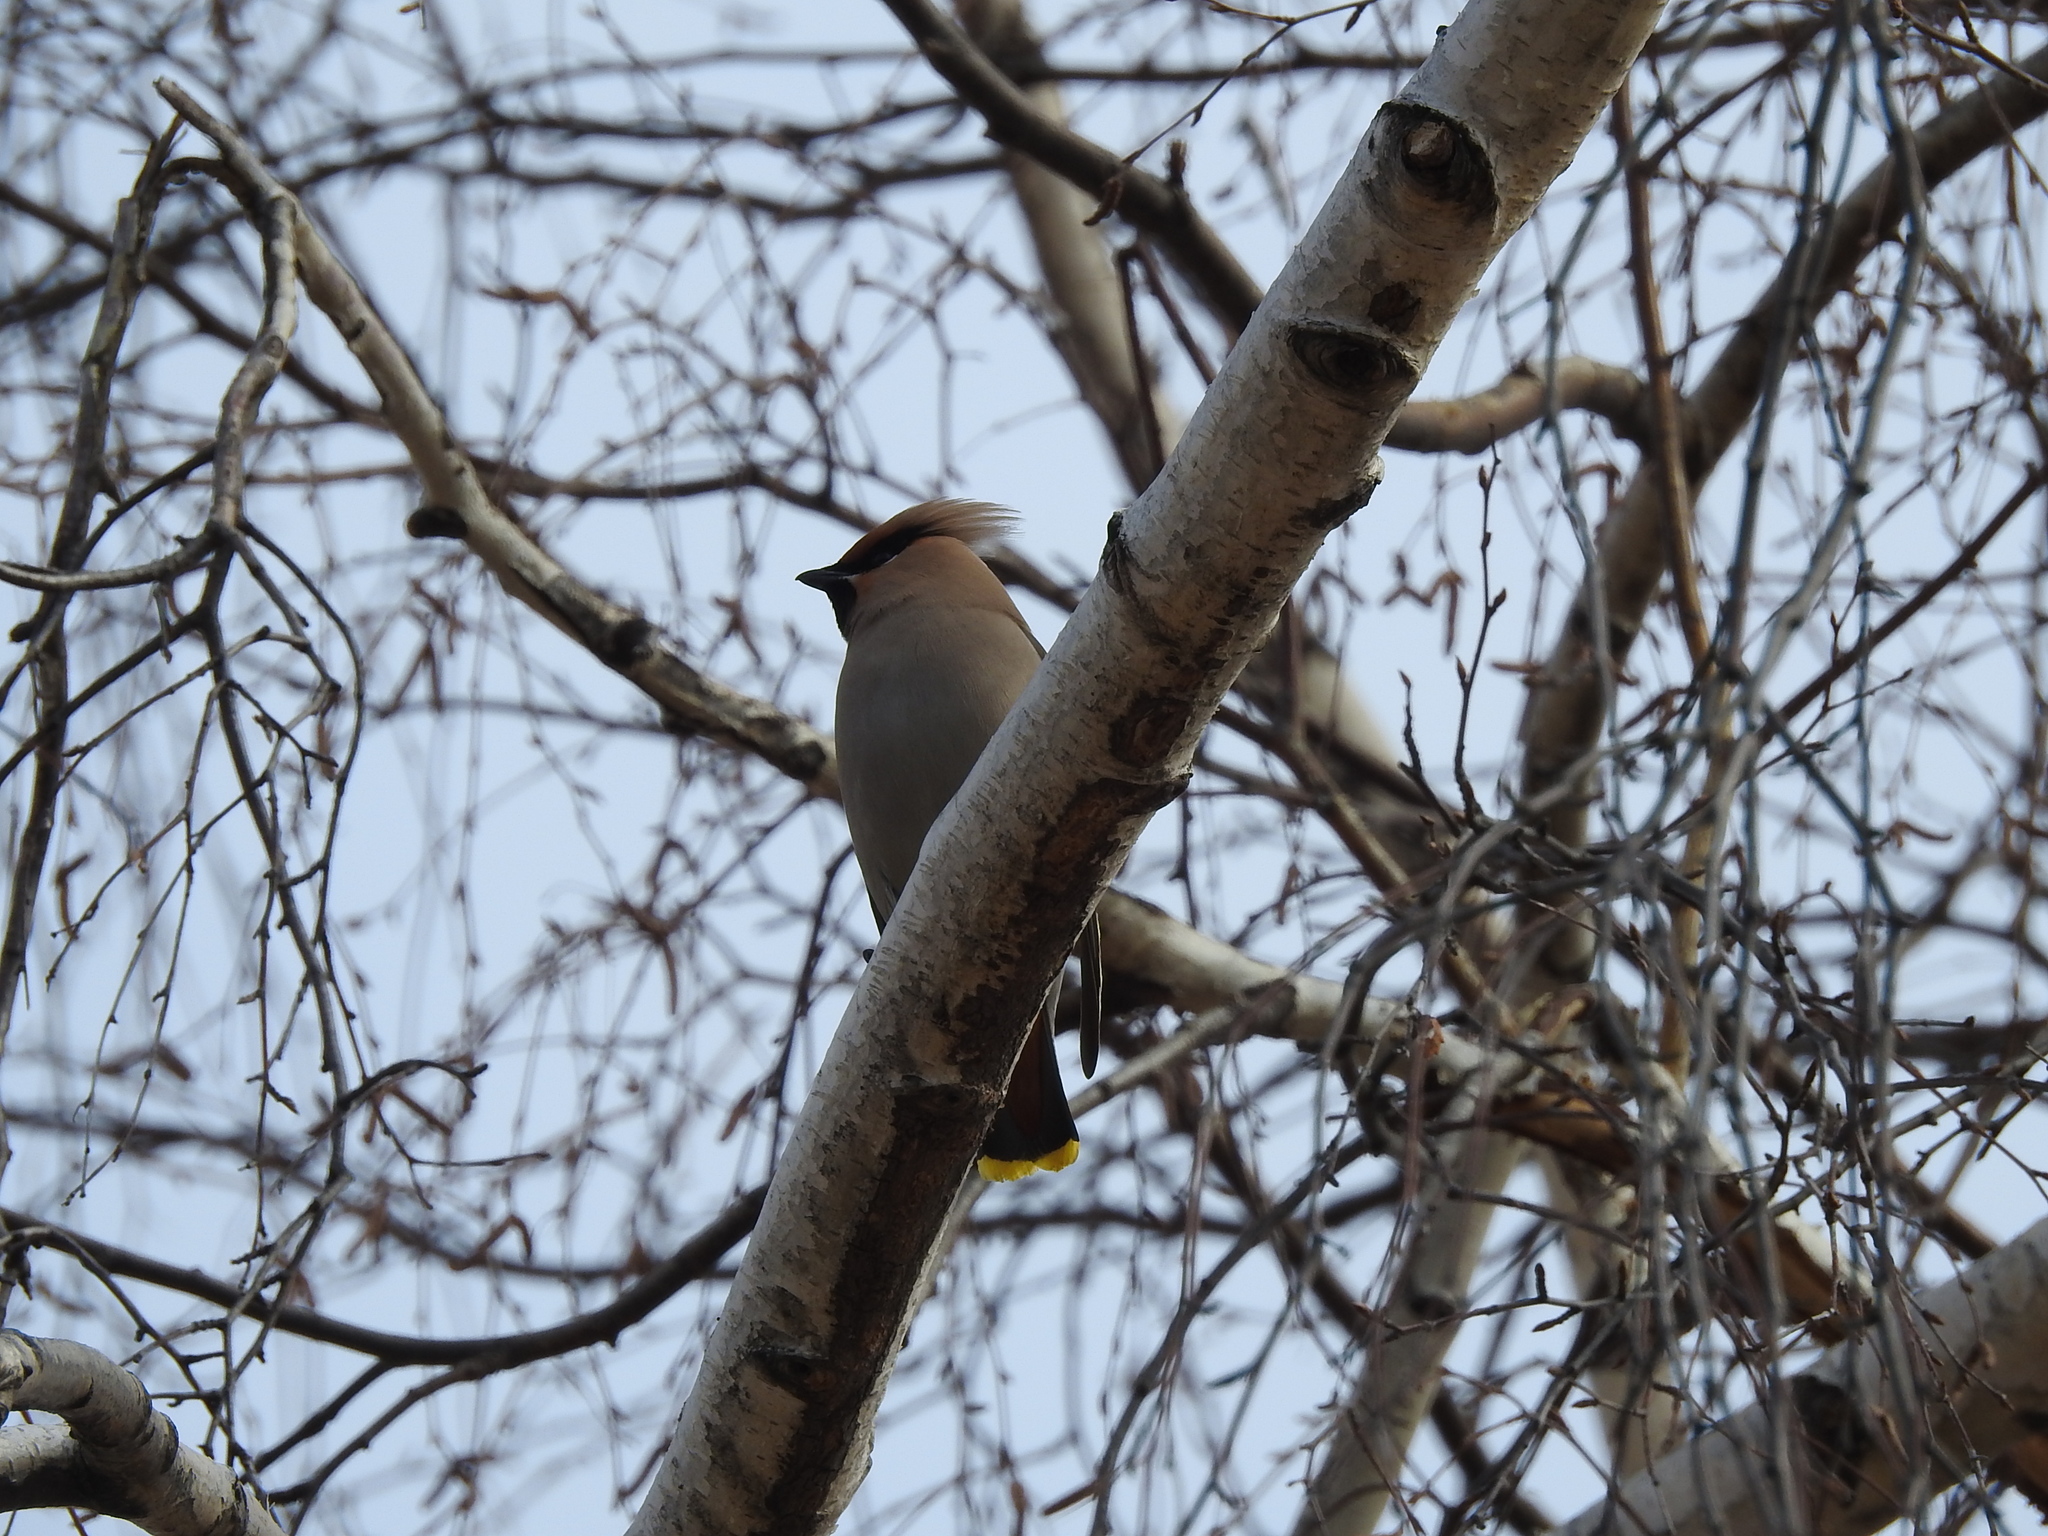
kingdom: Animalia
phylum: Chordata
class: Aves
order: Passeriformes
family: Bombycillidae
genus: Bombycilla
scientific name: Bombycilla garrulus
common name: Bohemian waxwing
